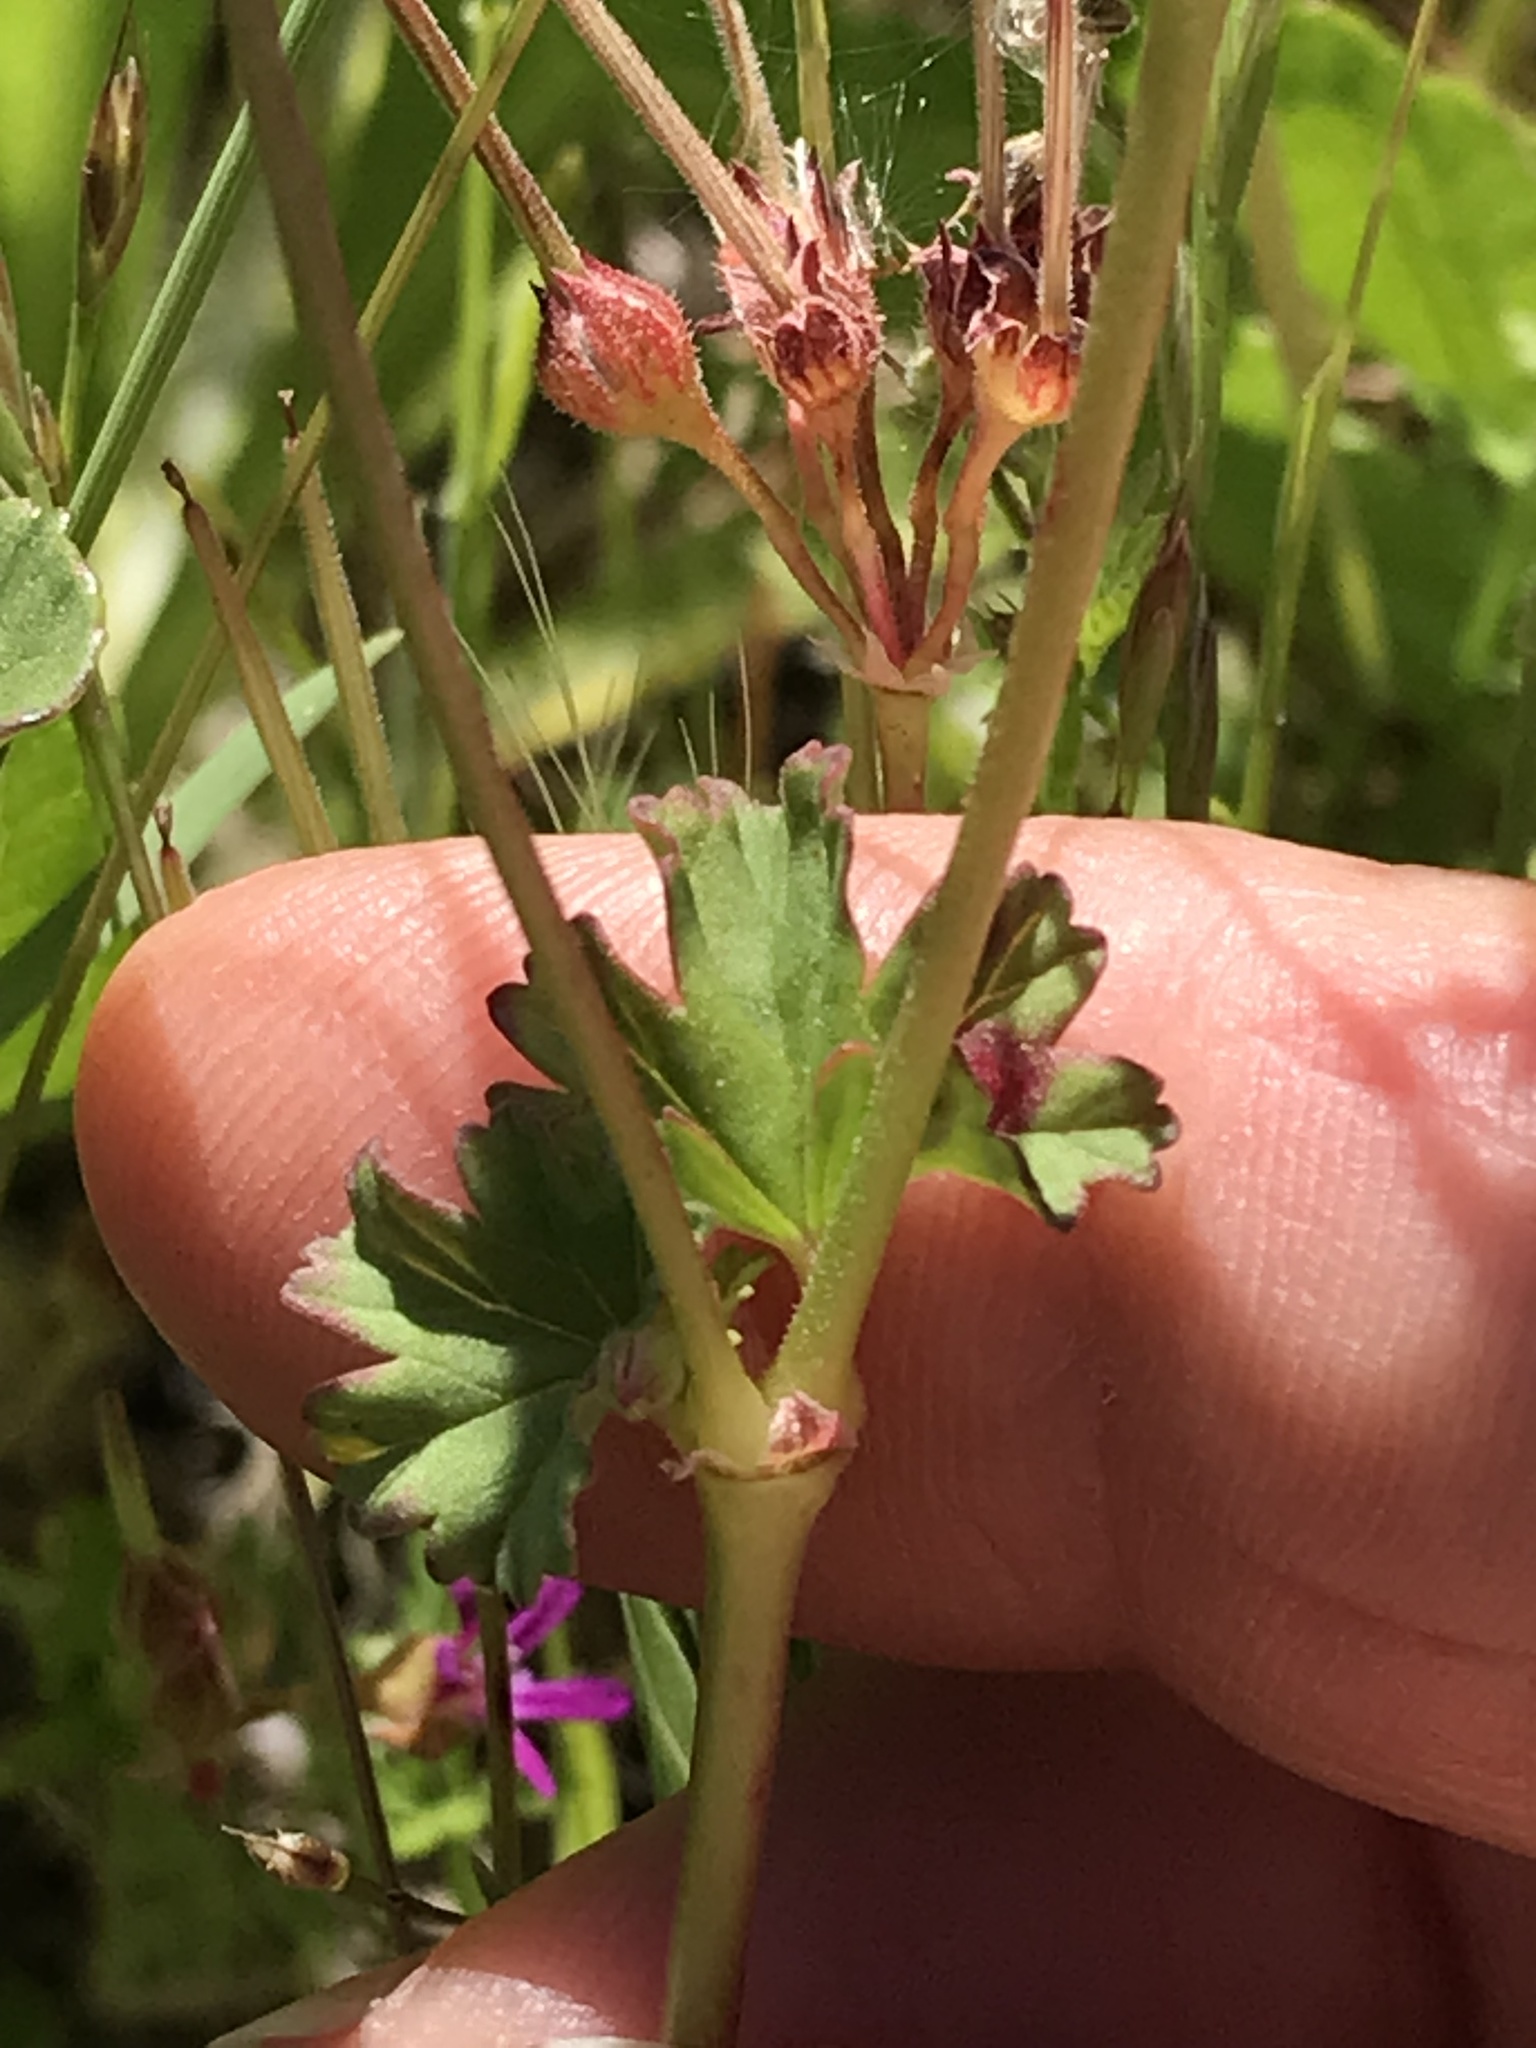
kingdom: Plantae
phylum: Tracheophyta
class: Magnoliopsida
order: Geraniales
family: Geraniaceae
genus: Pelargonium
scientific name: Pelargonium grossularioides
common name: Gooseberry geranium
